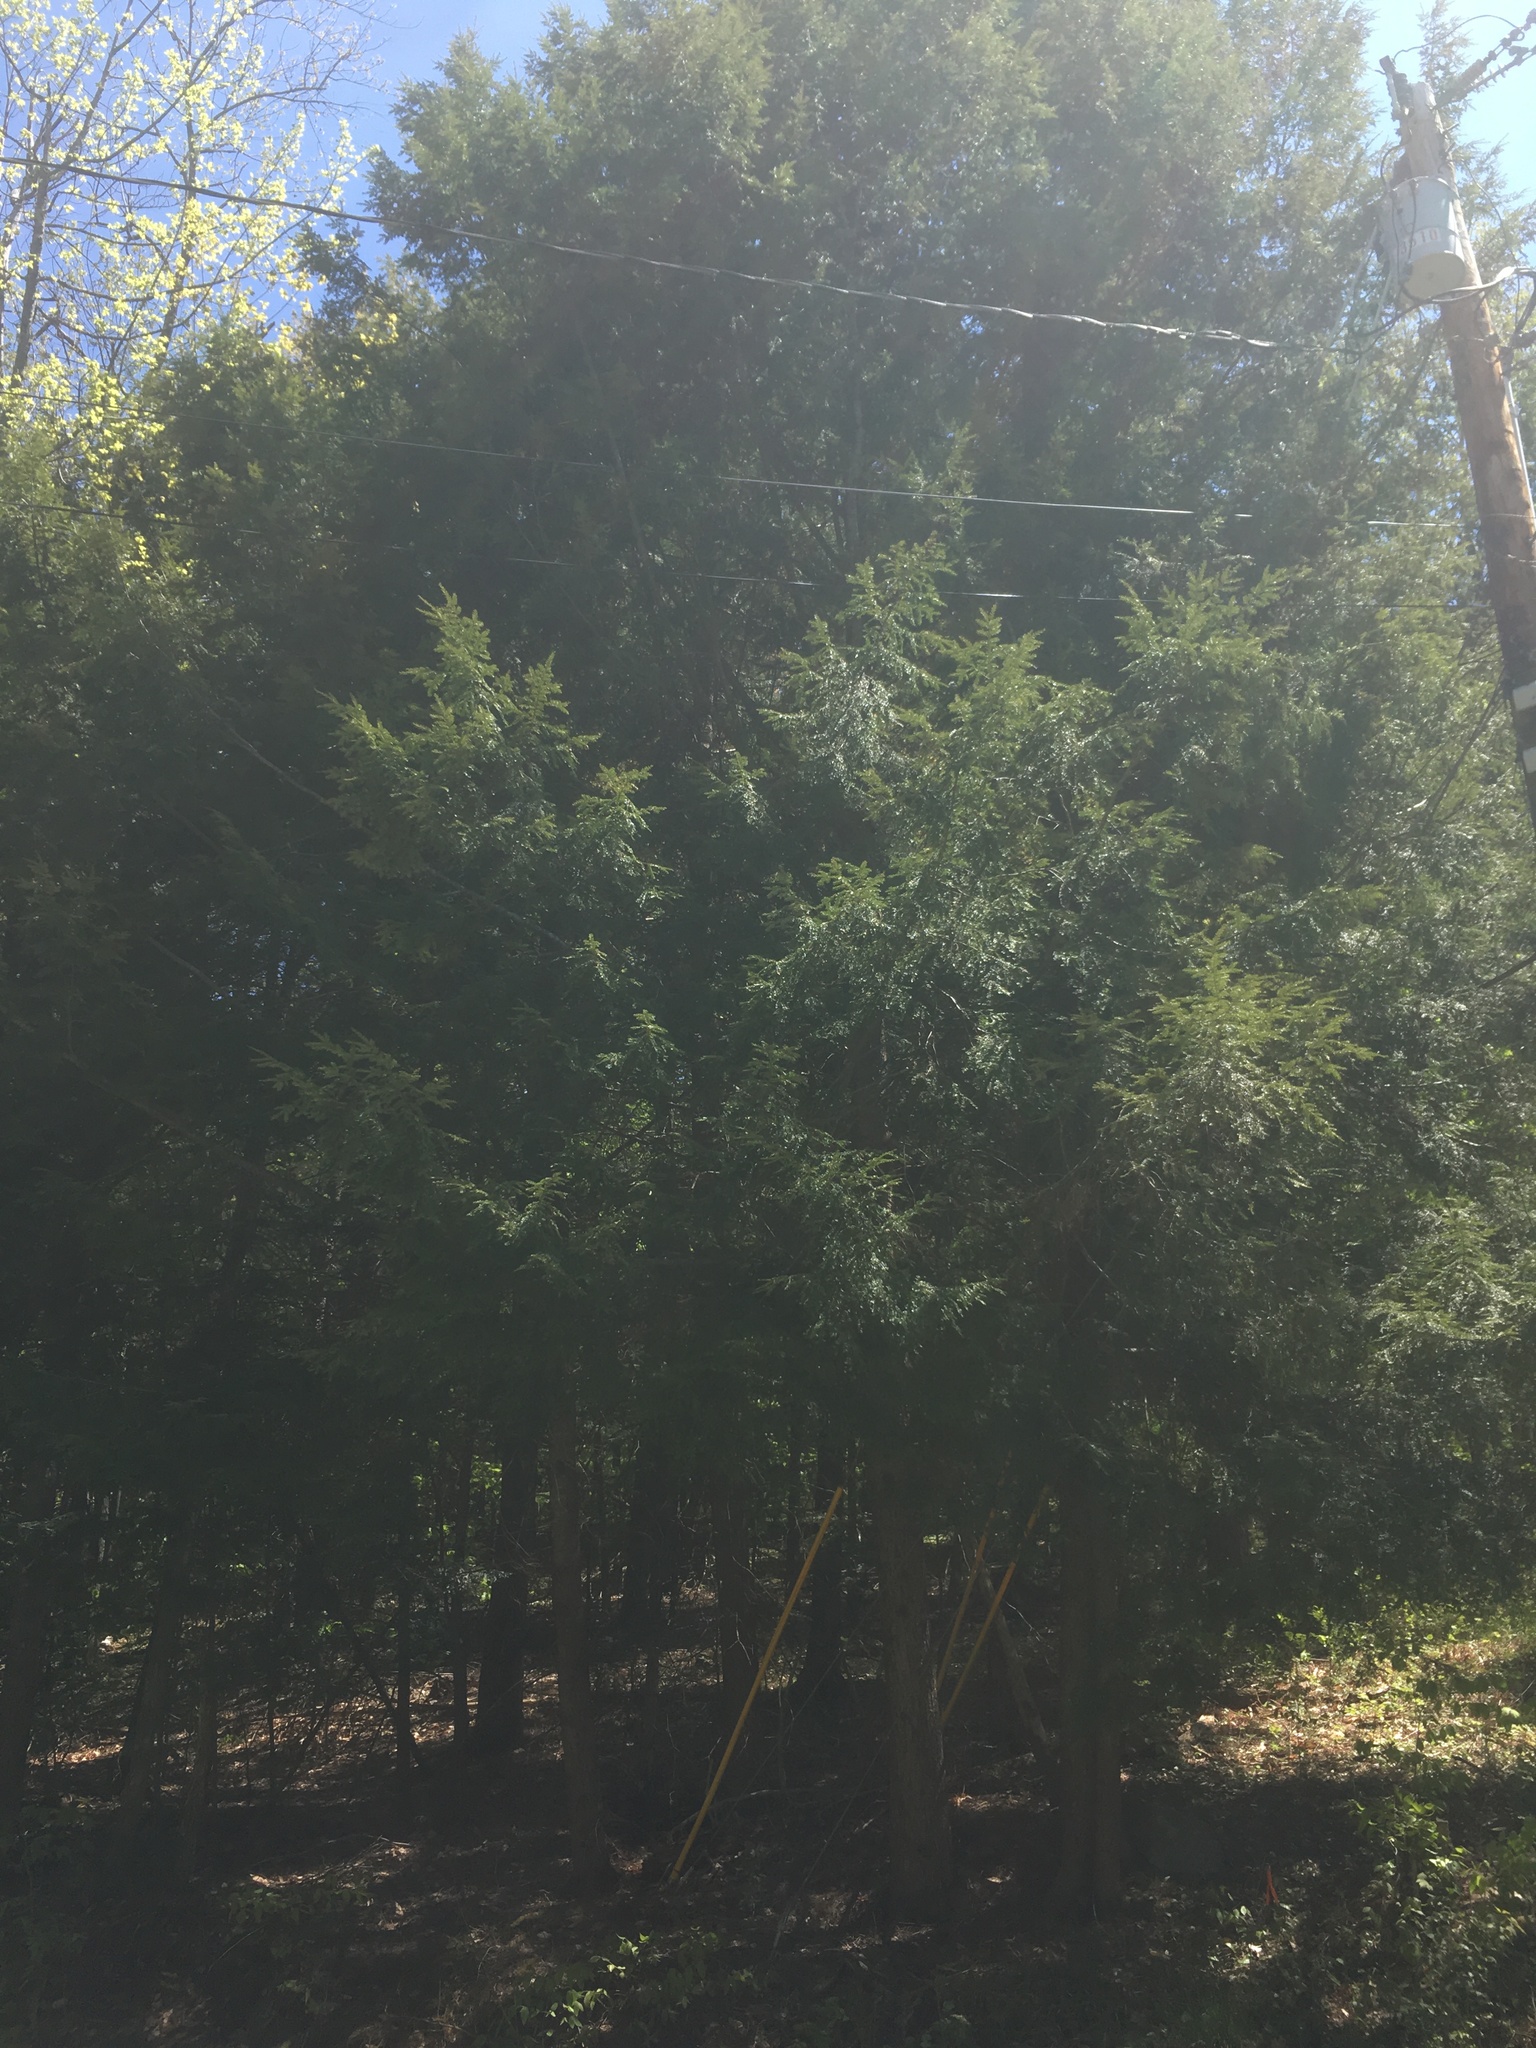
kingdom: Plantae
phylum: Tracheophyta
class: Pinopsida
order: Pinales
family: Pinaceae
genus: Tsuga
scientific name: Tsuga canadensis
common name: Eastern hemlock
